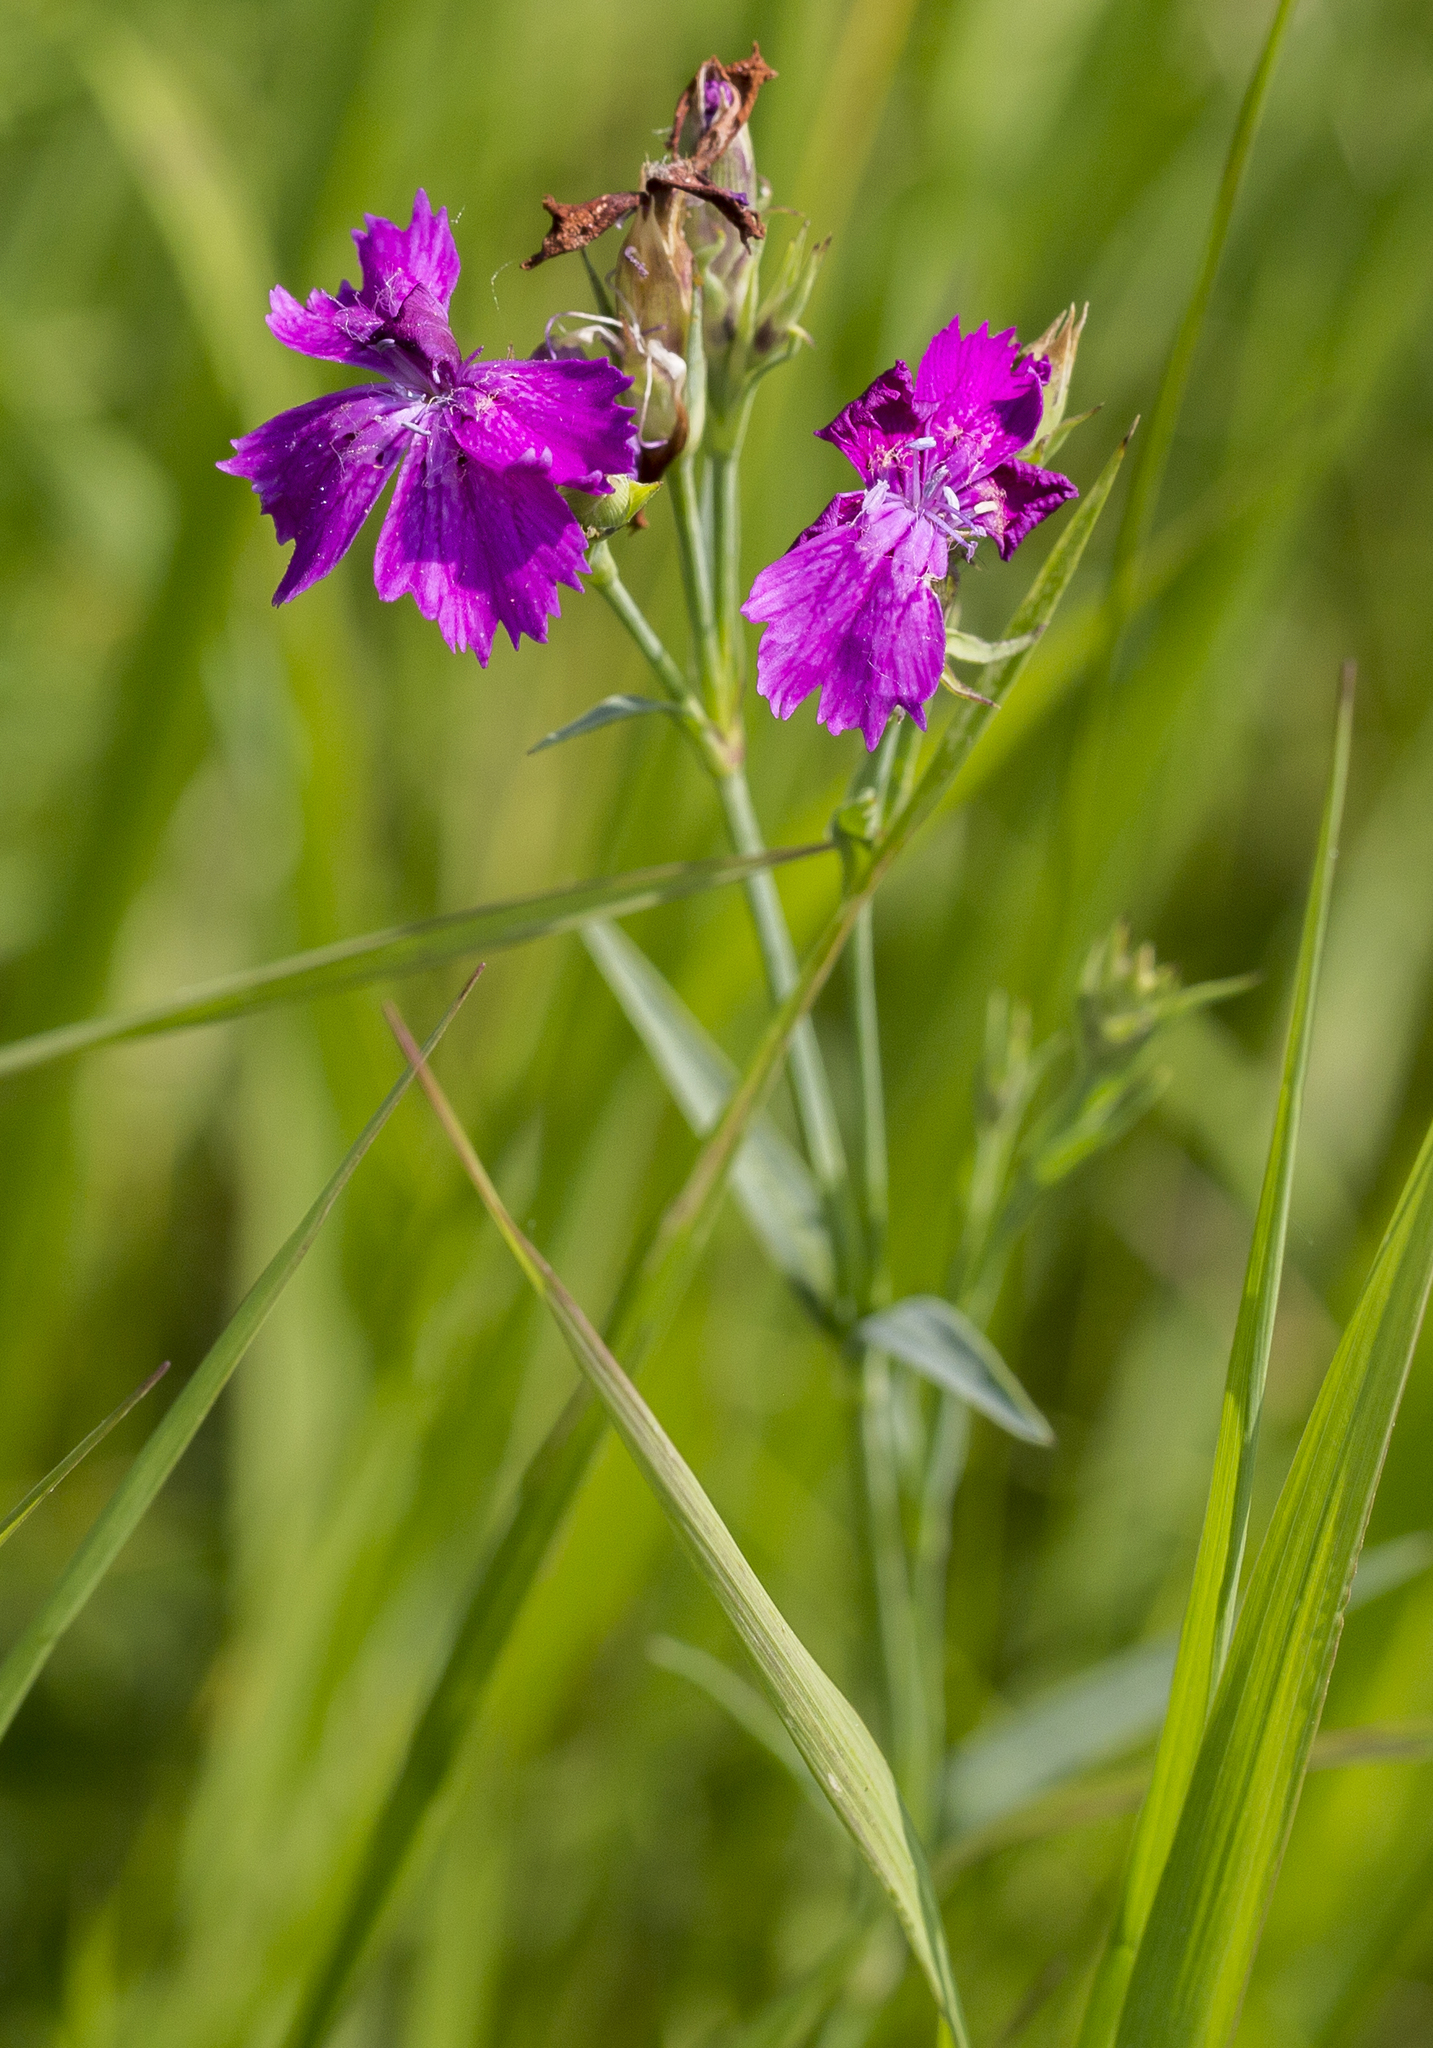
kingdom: Plantae
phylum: Tracheophyta
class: Magnoliopsida
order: Caryophyllales
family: Caryophyllaceae
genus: Dianthus
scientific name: Dianthus chinensis
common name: Rainbow pink
